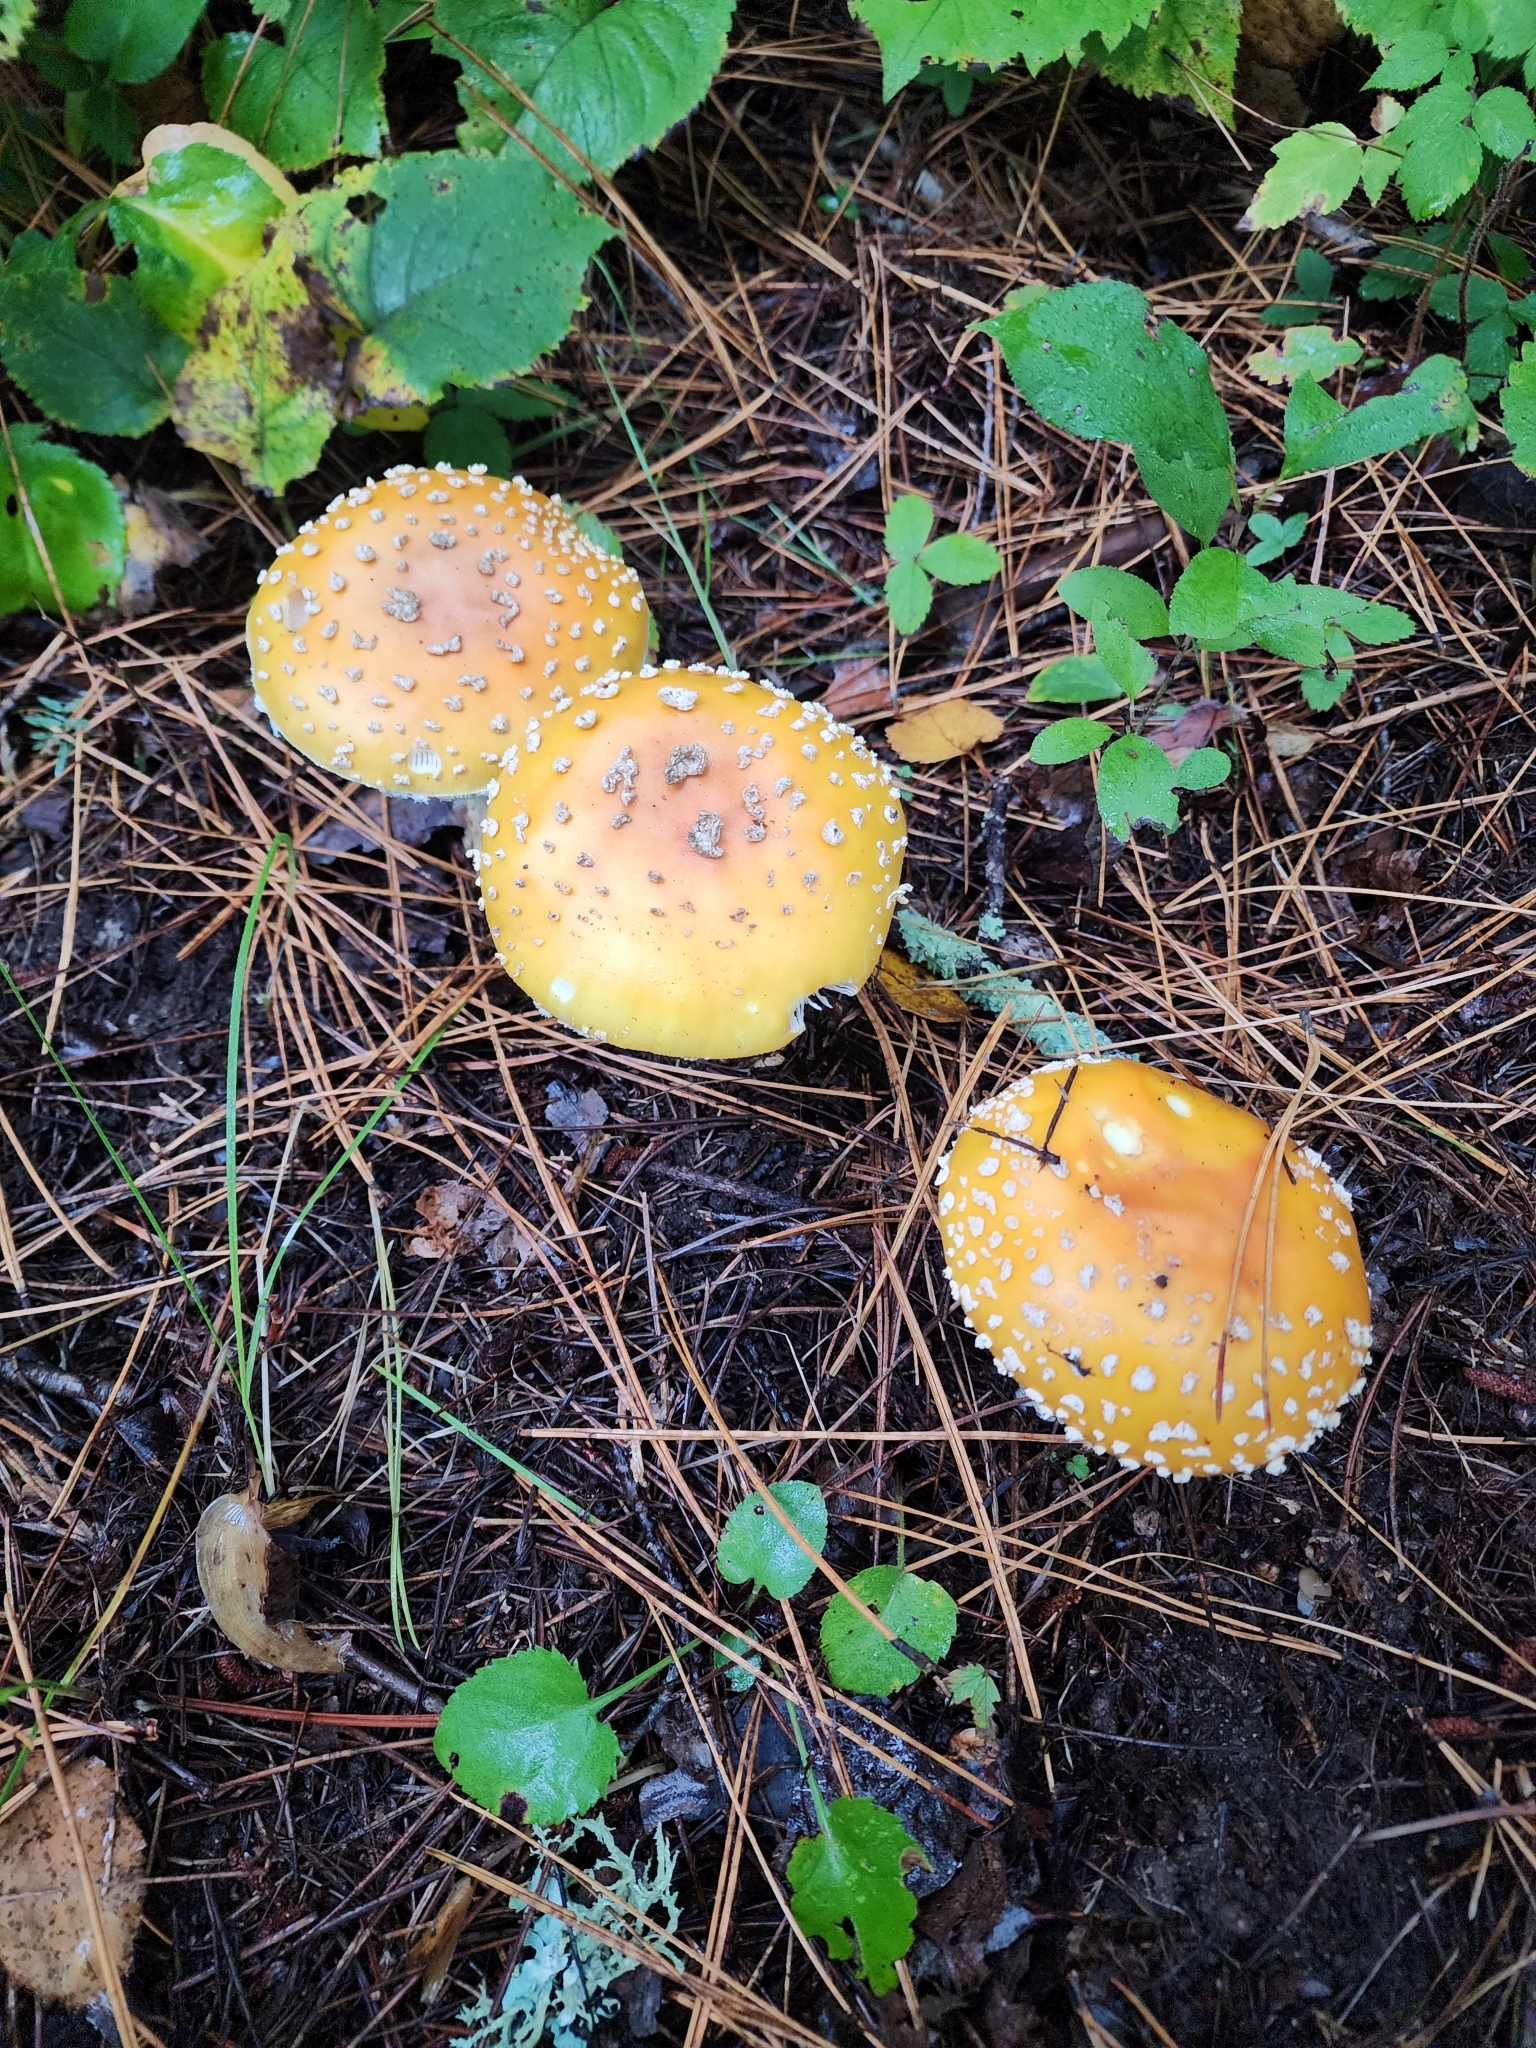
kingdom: Fungi
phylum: Basidiomycota
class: Agaricomycetes
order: Agaricales
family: Amanitaceae
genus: Amanita
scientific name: Amanita muscaria
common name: Fly agaric
